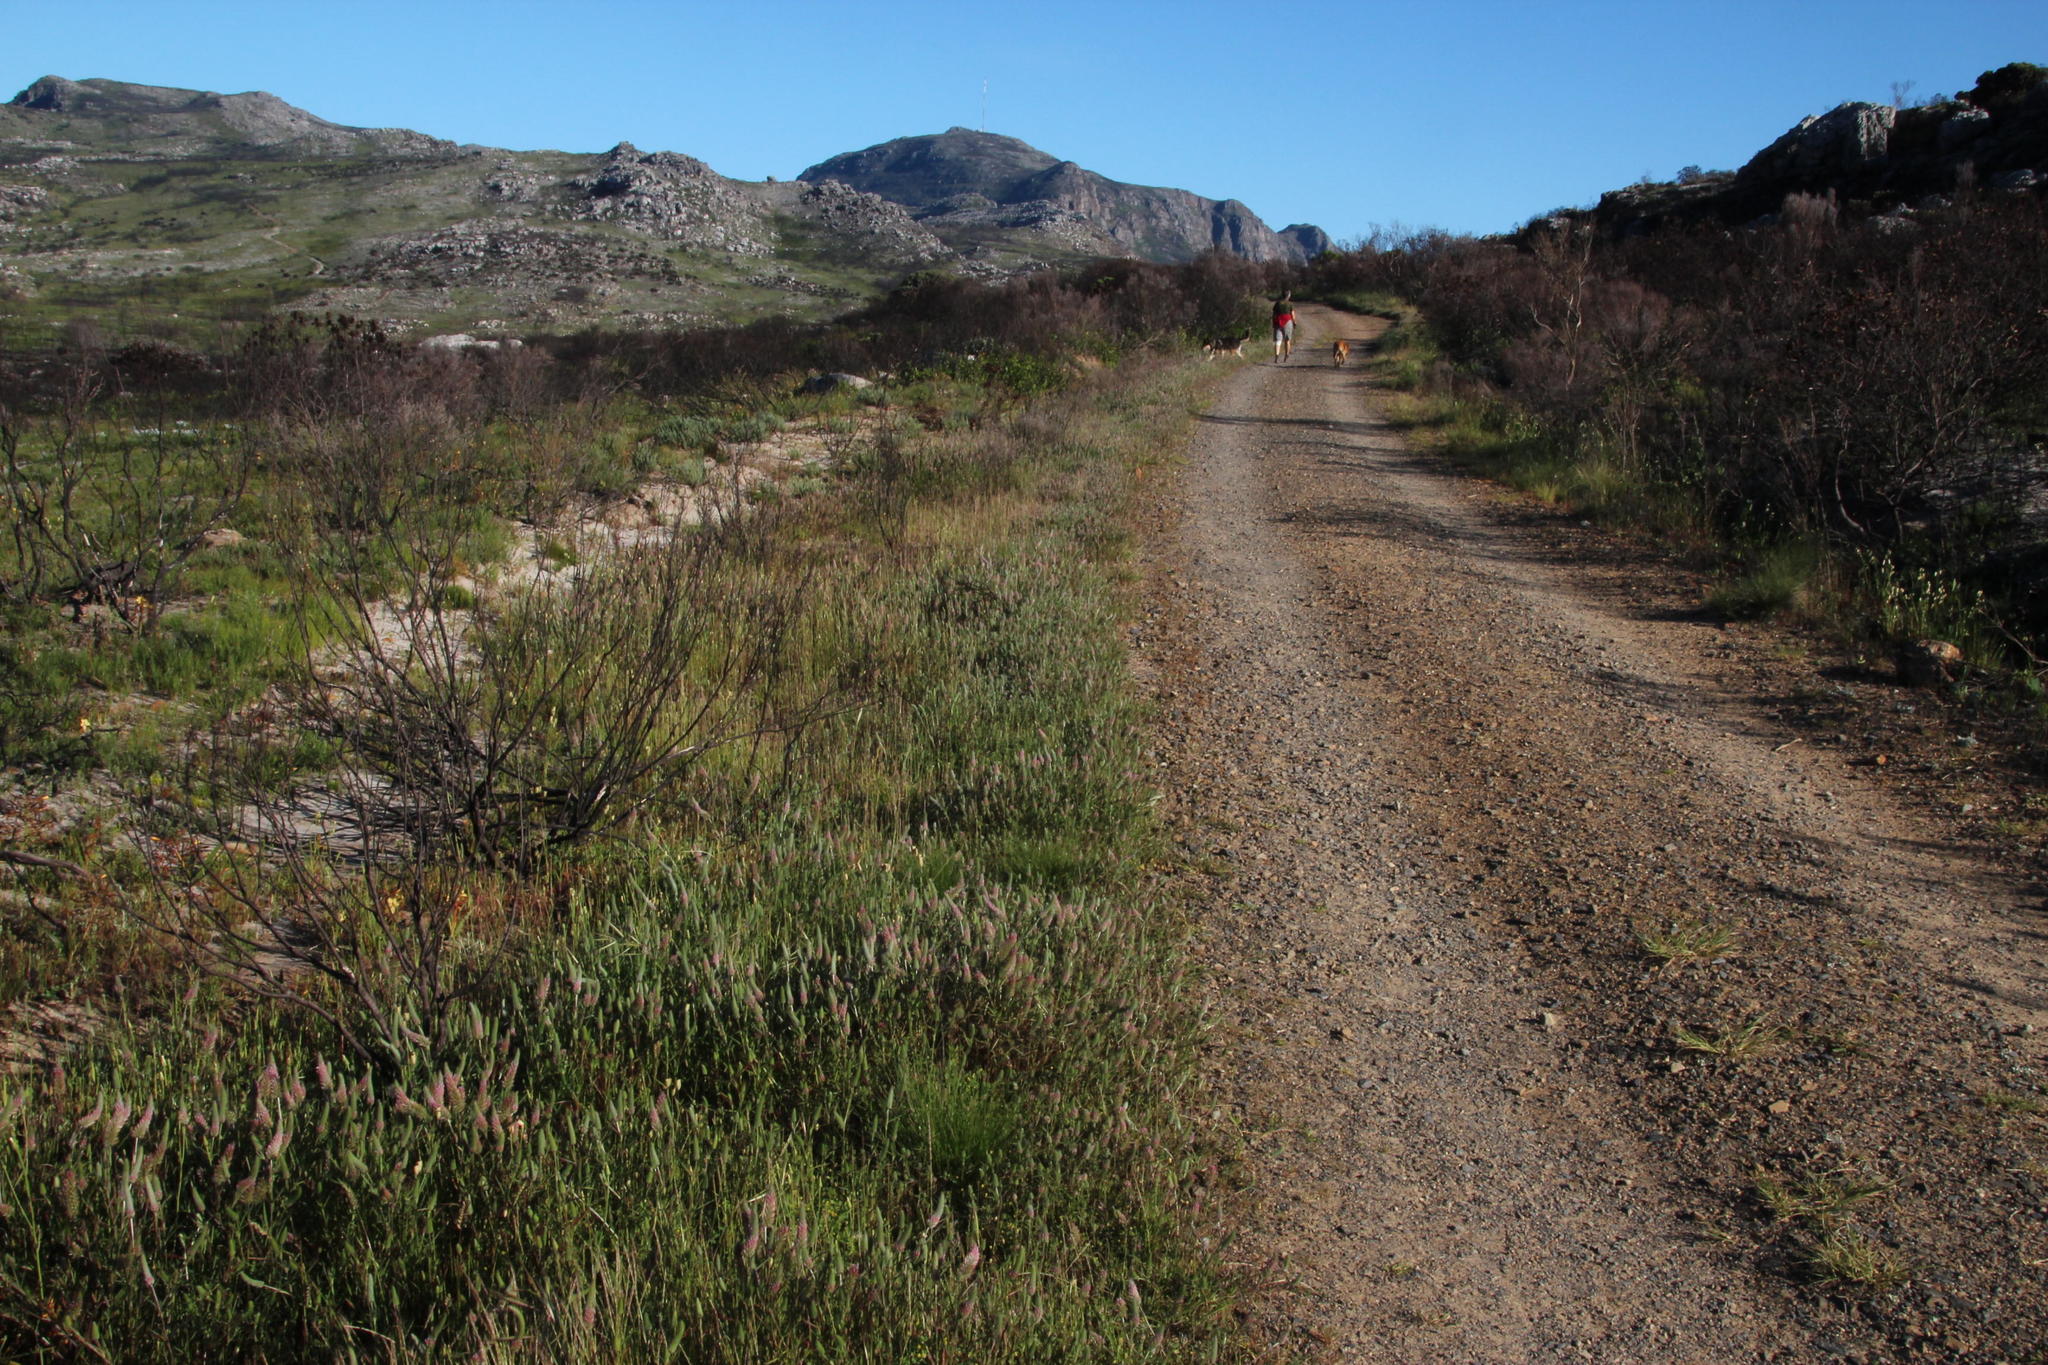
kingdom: Plantae
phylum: Tracheophyta
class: Magnoliopsida
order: Fabales
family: Fabaceae
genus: Trifolium
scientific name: Trifolium angustifolium
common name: Narrow clover
